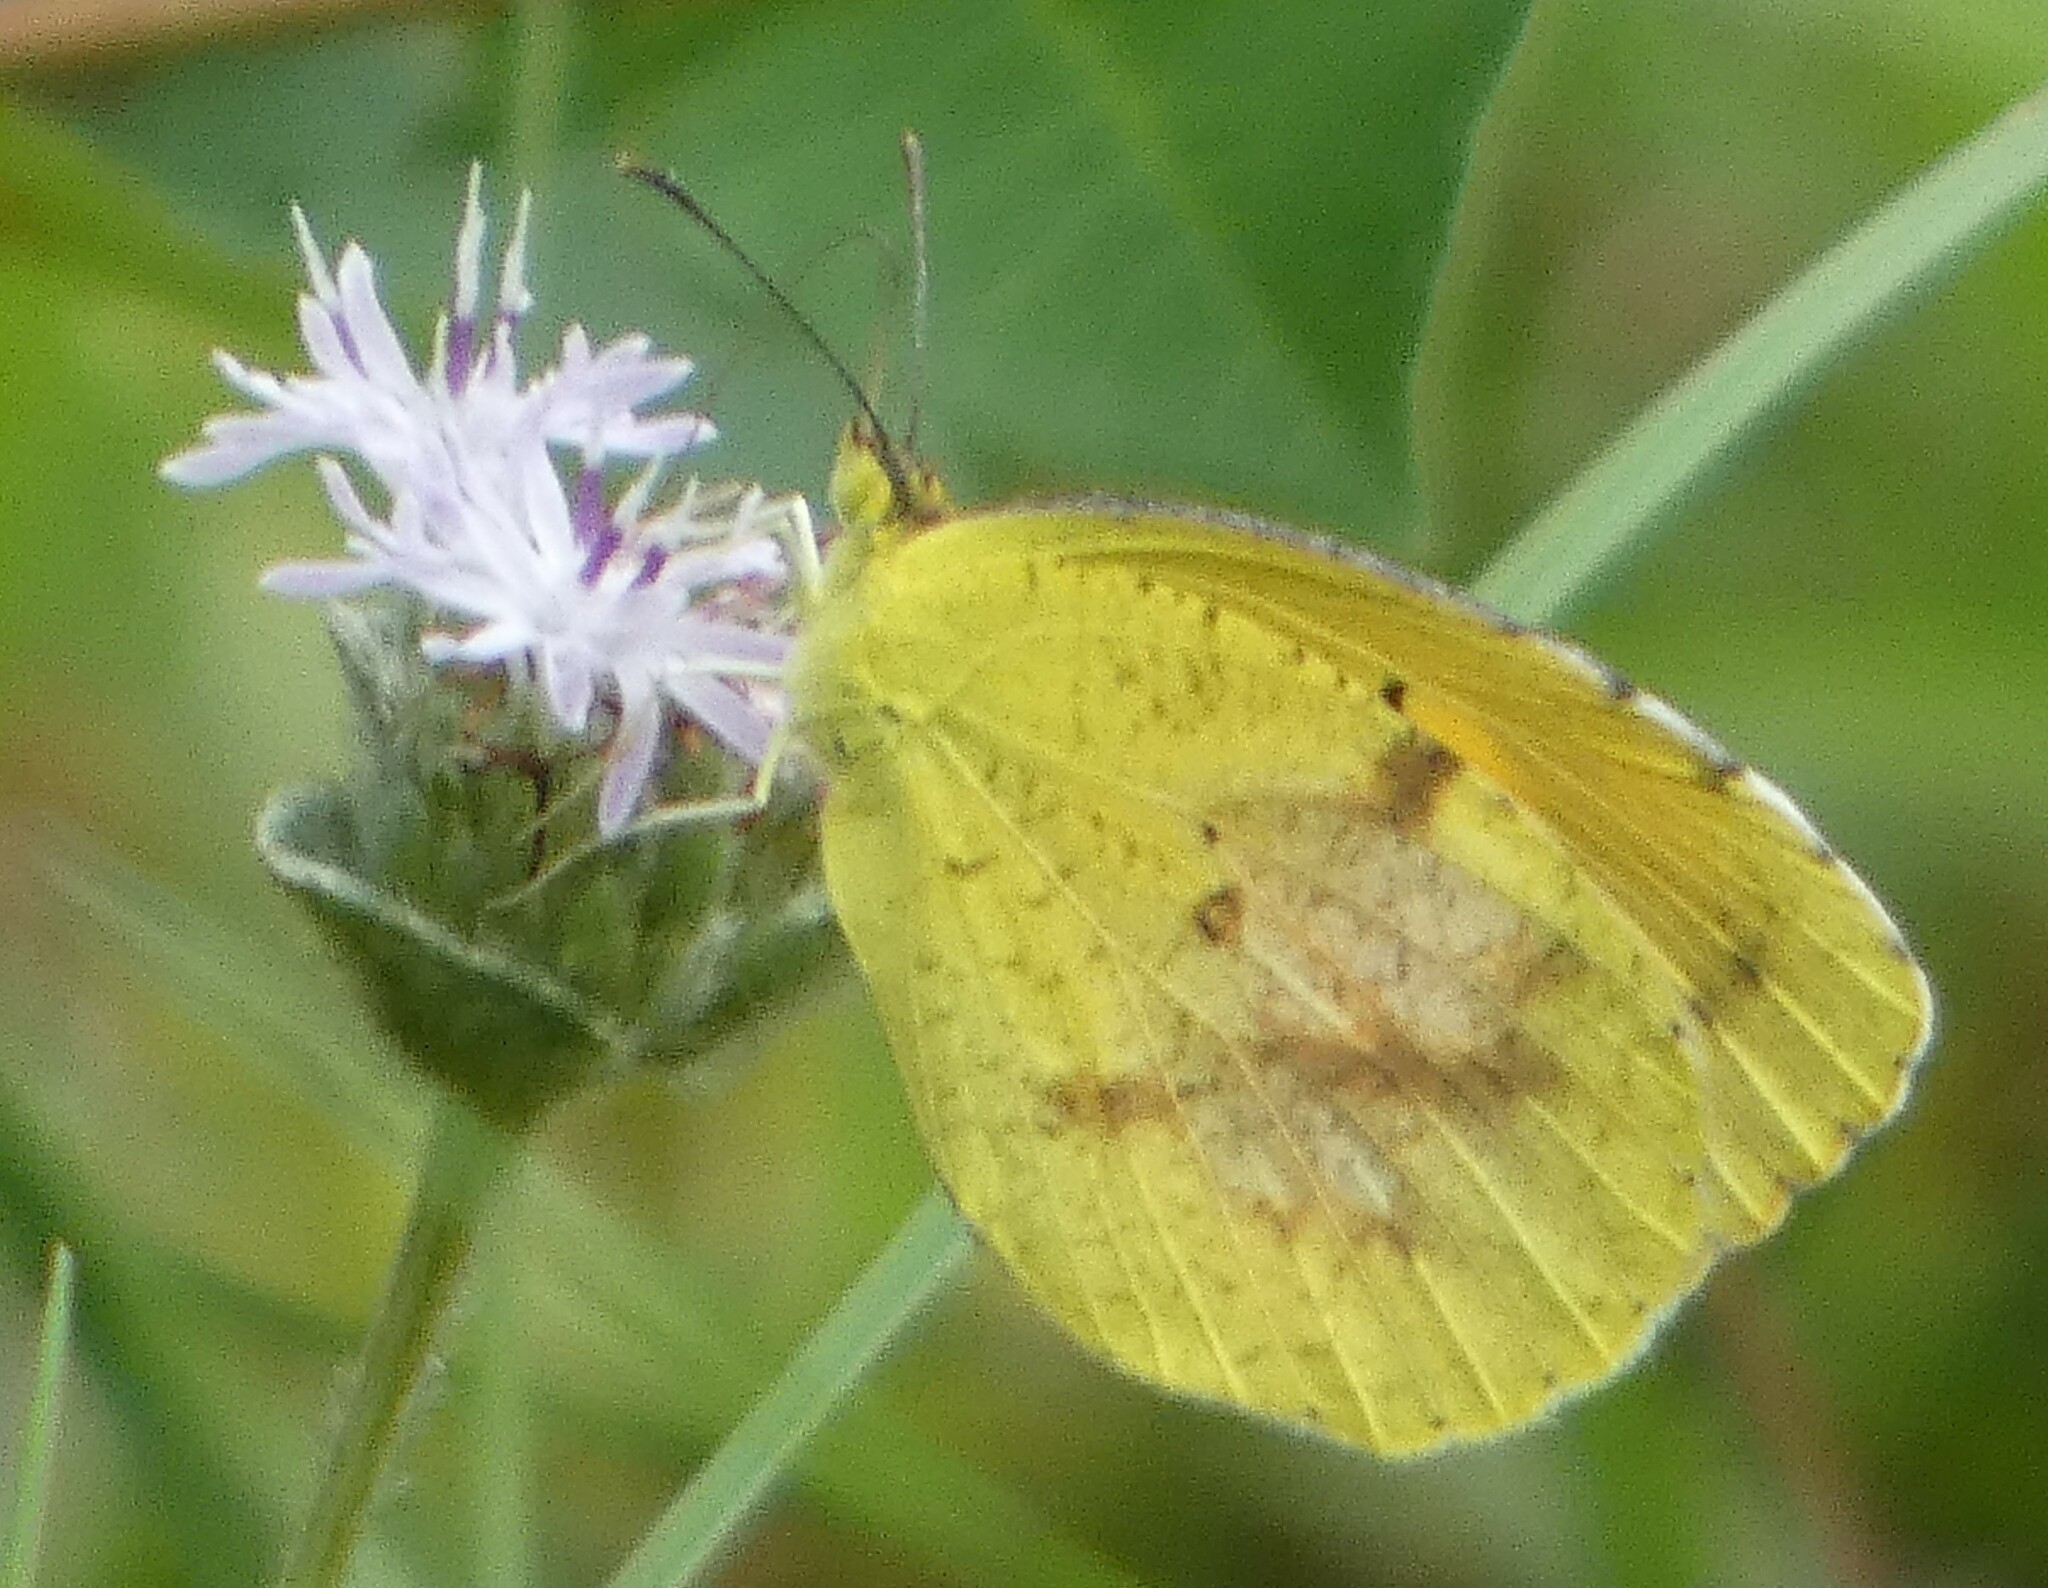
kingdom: Animalia
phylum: Arthropoda
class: Insecta
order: Lepidoptera
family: Pieridae
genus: Abaeis
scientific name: Abaeis nicippe
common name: Sleepy orange
